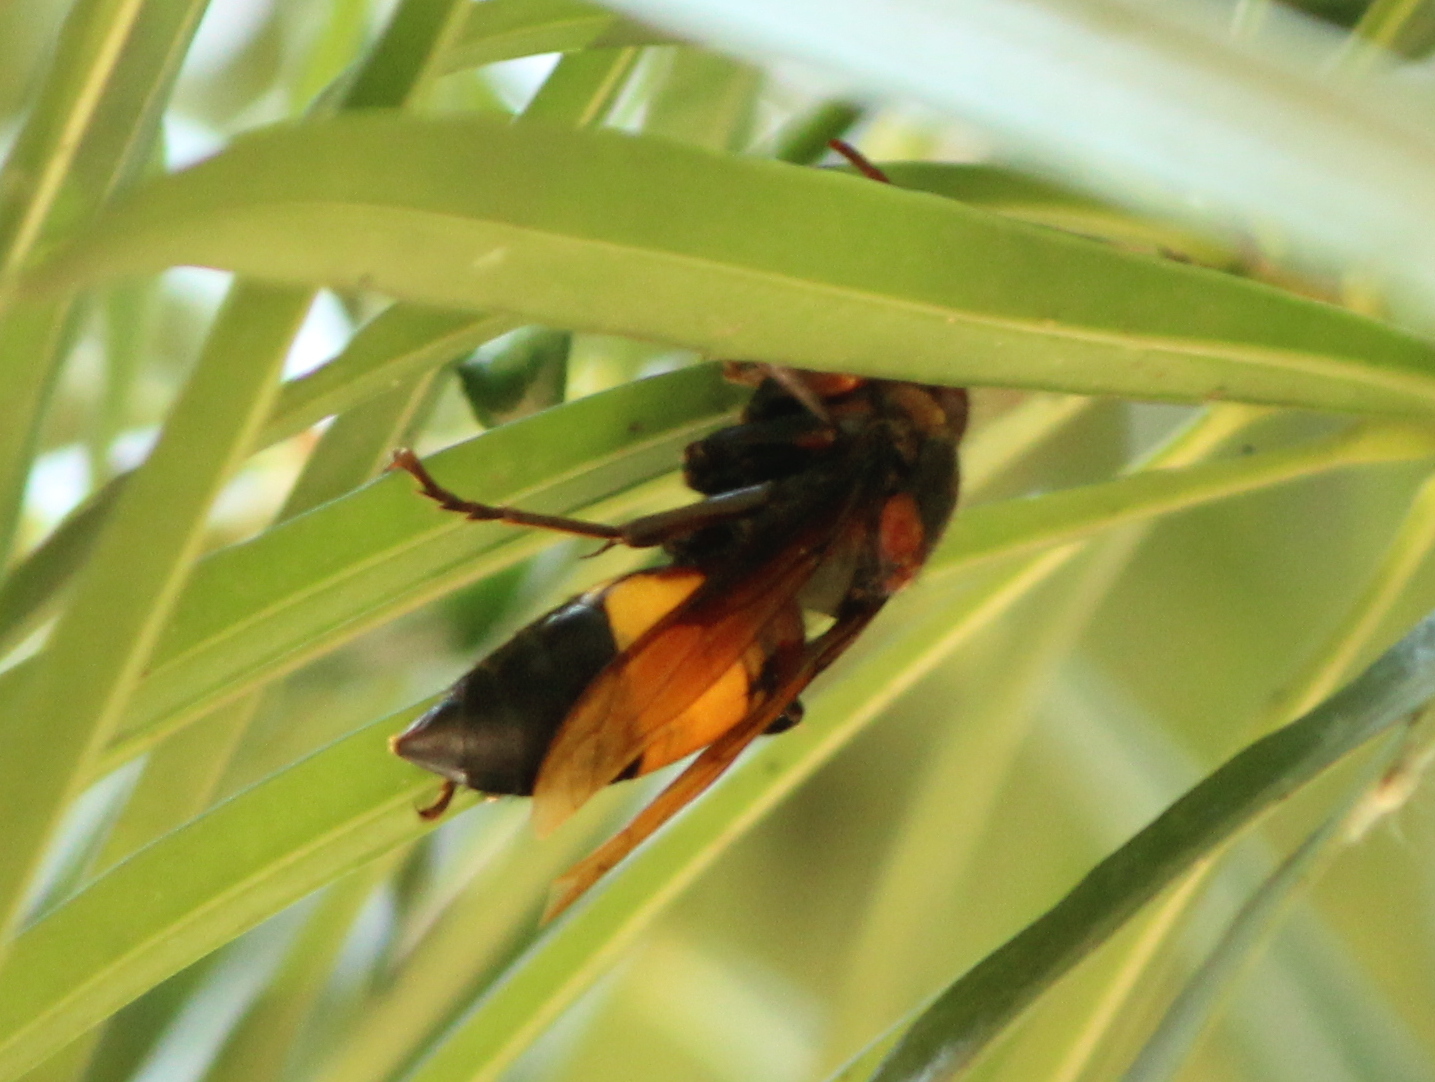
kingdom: Animalia
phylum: Arthropoda
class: Insecta
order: Hymenoptera
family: Vespidae
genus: Vespa
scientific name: Vespa tropica
